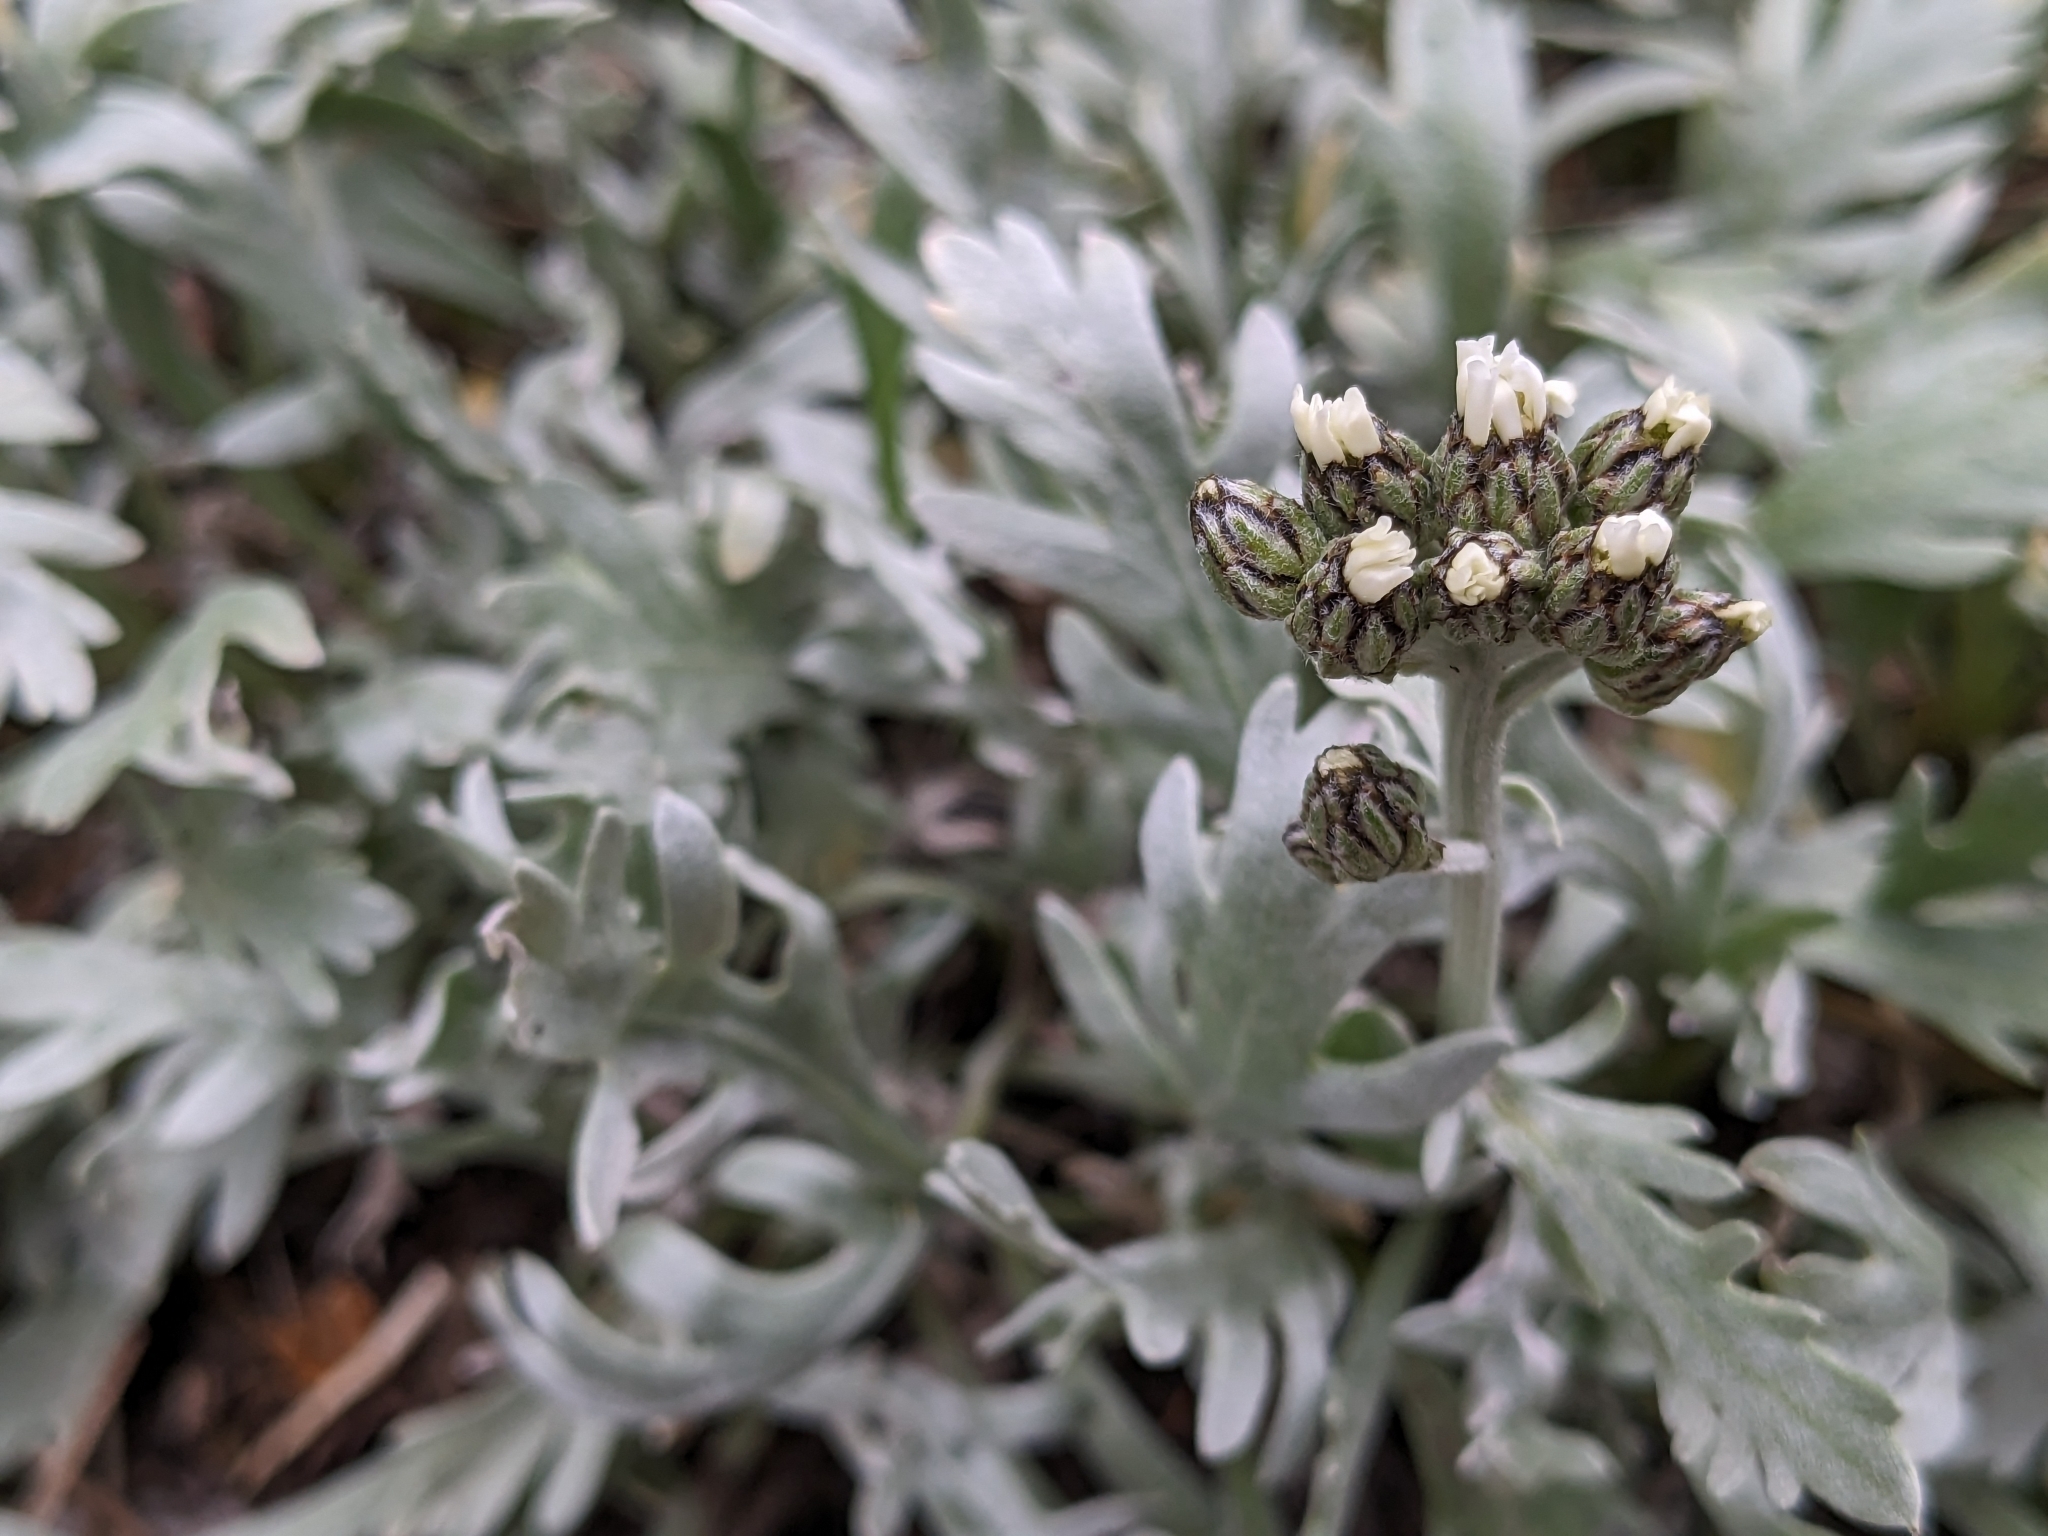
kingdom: Plantae
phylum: Tracheophyta
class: Magnoliopsida
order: Asterales
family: Asteraceae
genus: Achillea
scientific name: Achillea clavennae
